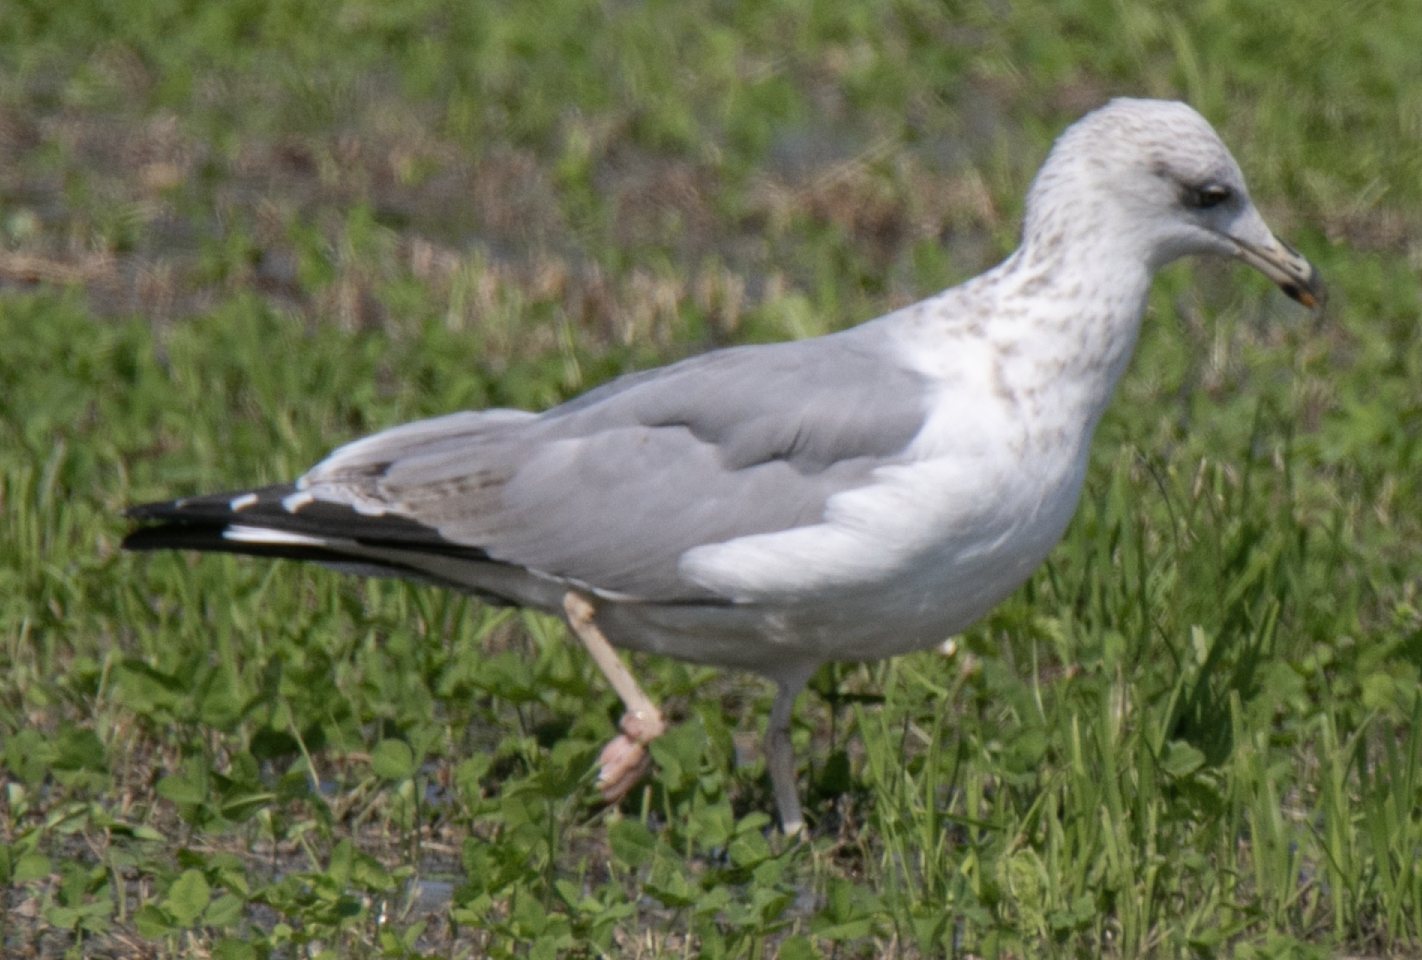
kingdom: Animalia
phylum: Chordata
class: Aves
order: Charadriiformes
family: Laridae
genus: Larus
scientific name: Larus michahellis
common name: Yellow-legged gull
